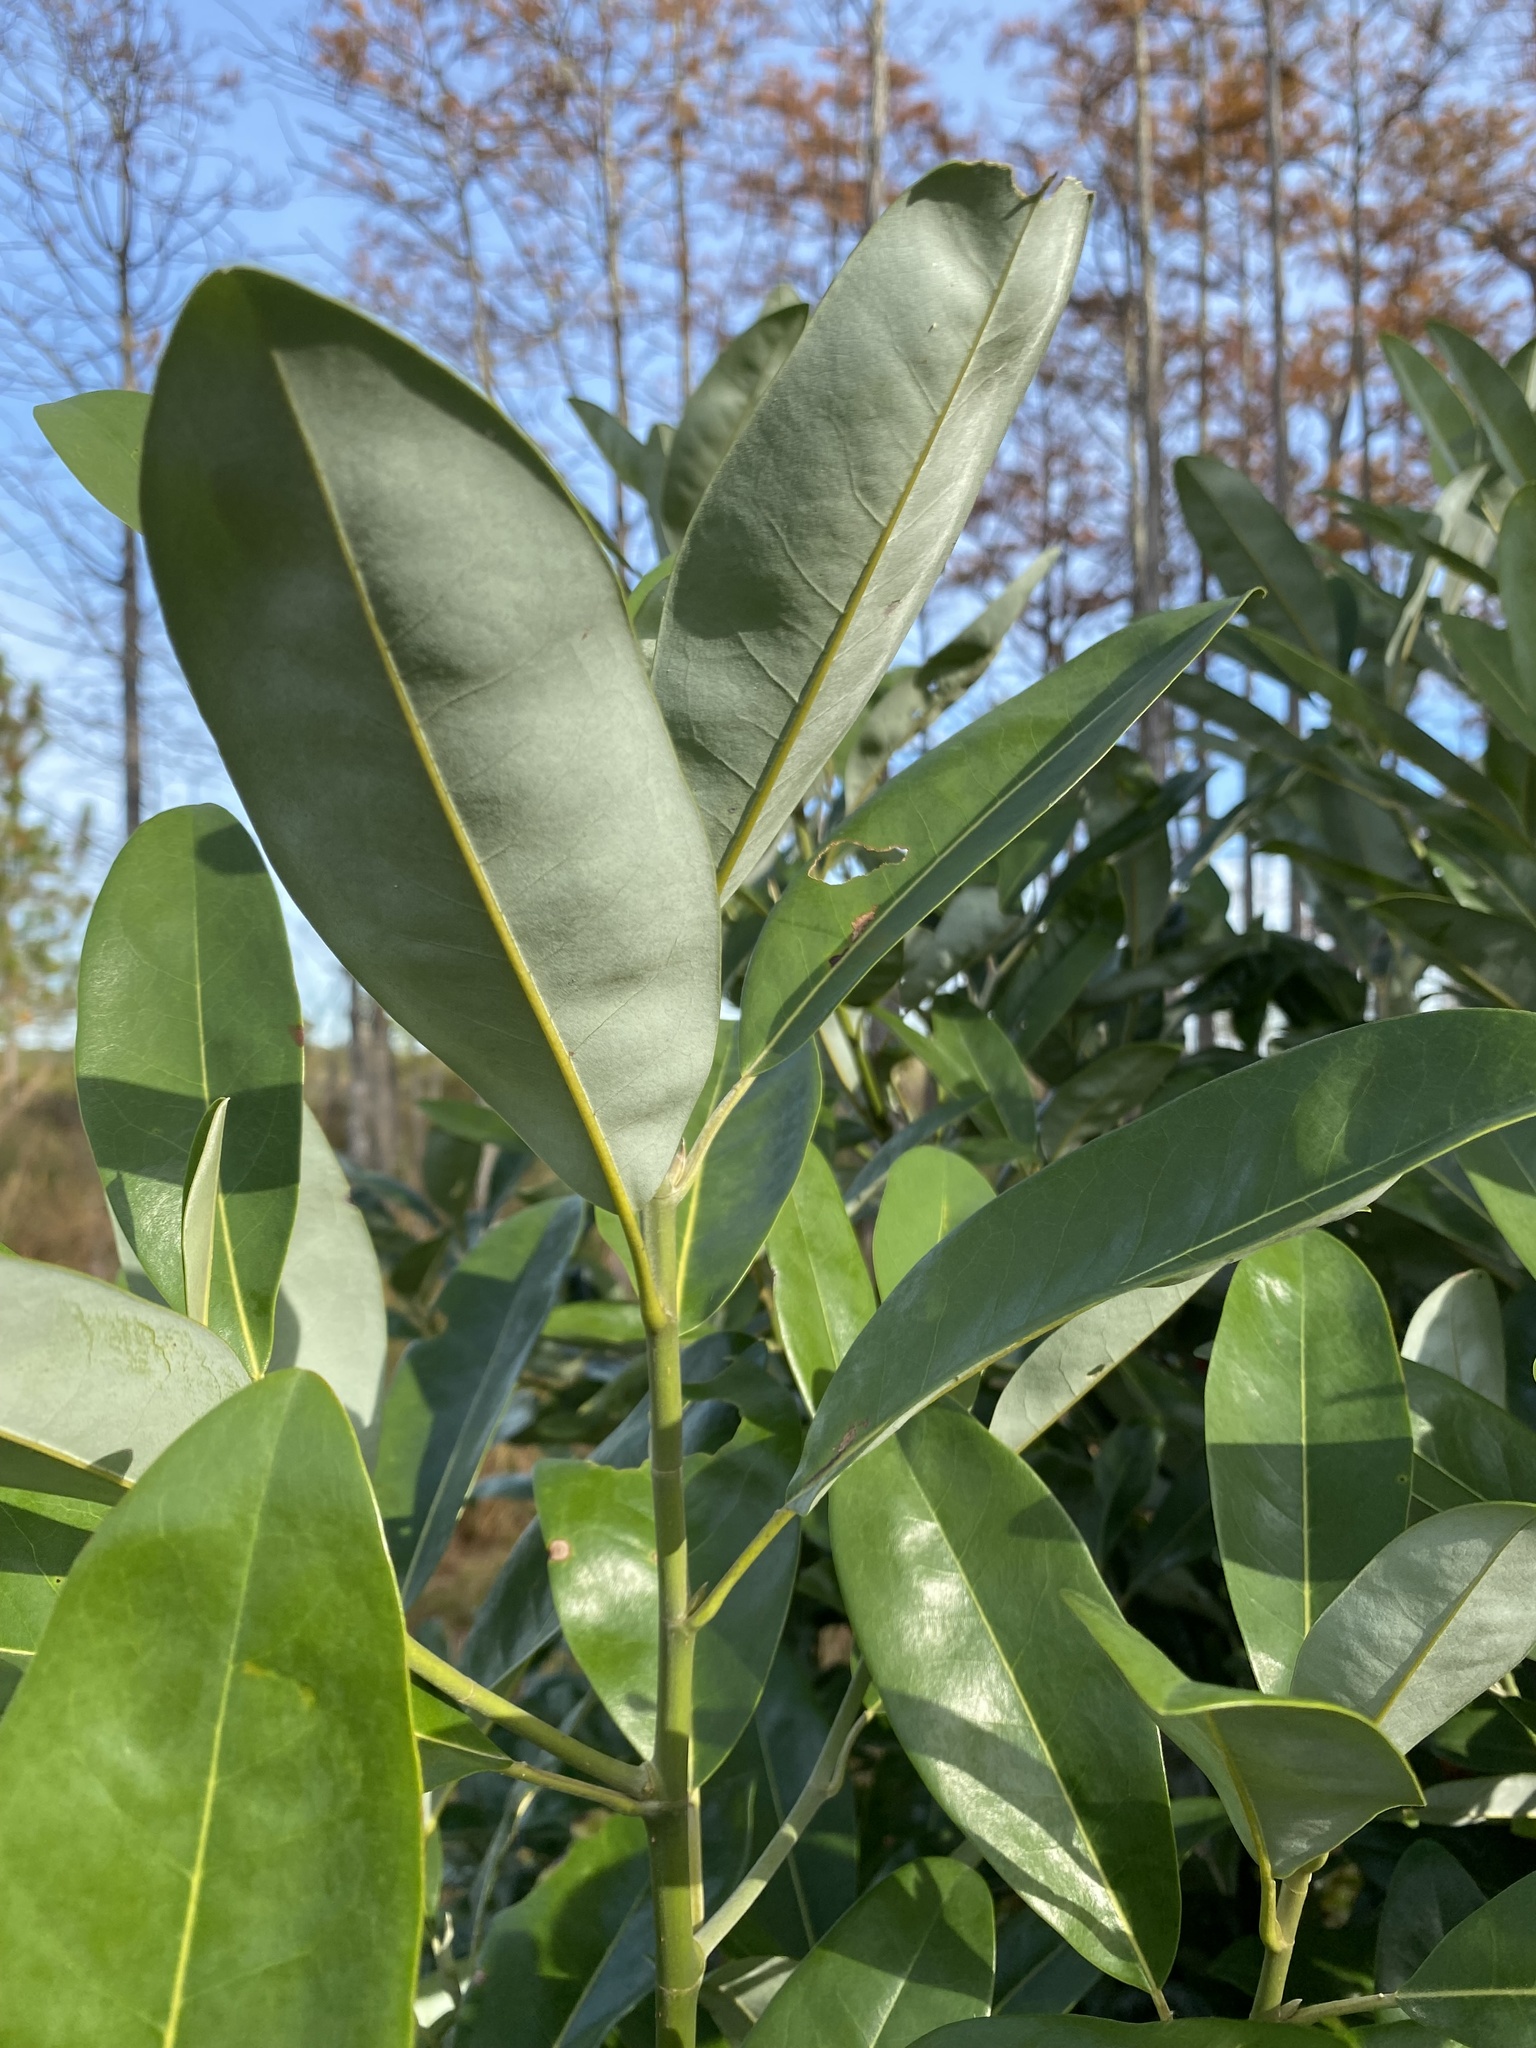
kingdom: Plantae
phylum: Tracheophyta
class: Magnoliopsida
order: Magnoliales
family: Magnoliaceae
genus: Magnolia
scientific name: Magnolia virginiana
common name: Swamp bay
